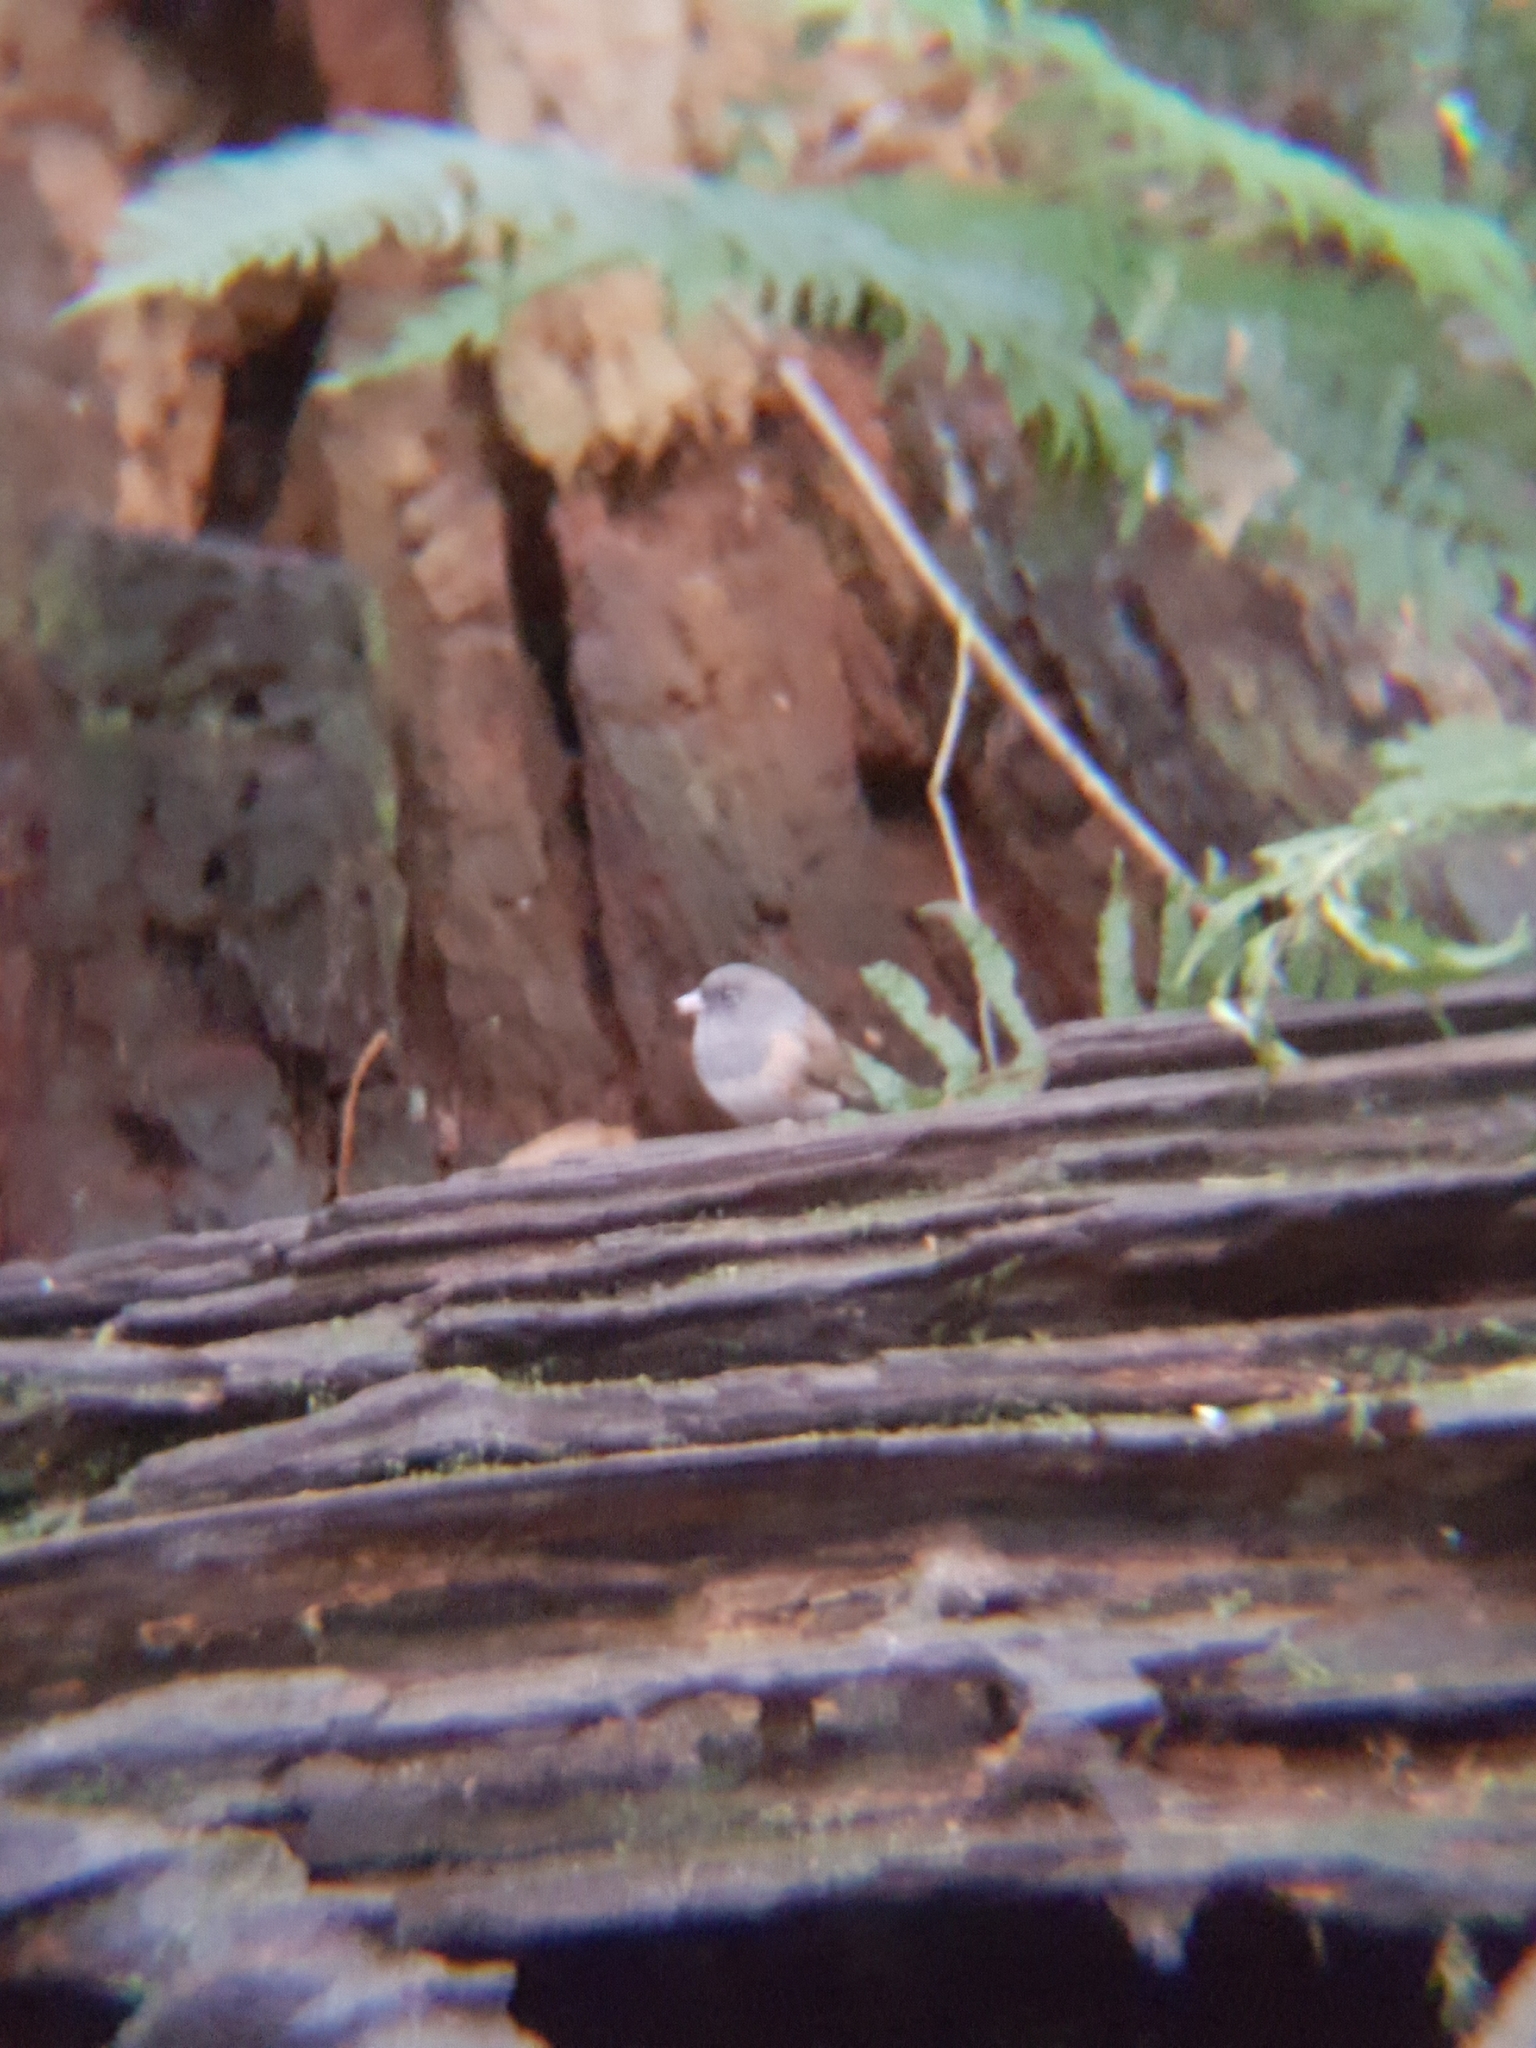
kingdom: Animalia
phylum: Chordata
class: Aves
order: Passeriformes
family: Passerellidae
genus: Junco
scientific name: Junco hyemalis
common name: Dark-eyed junco
